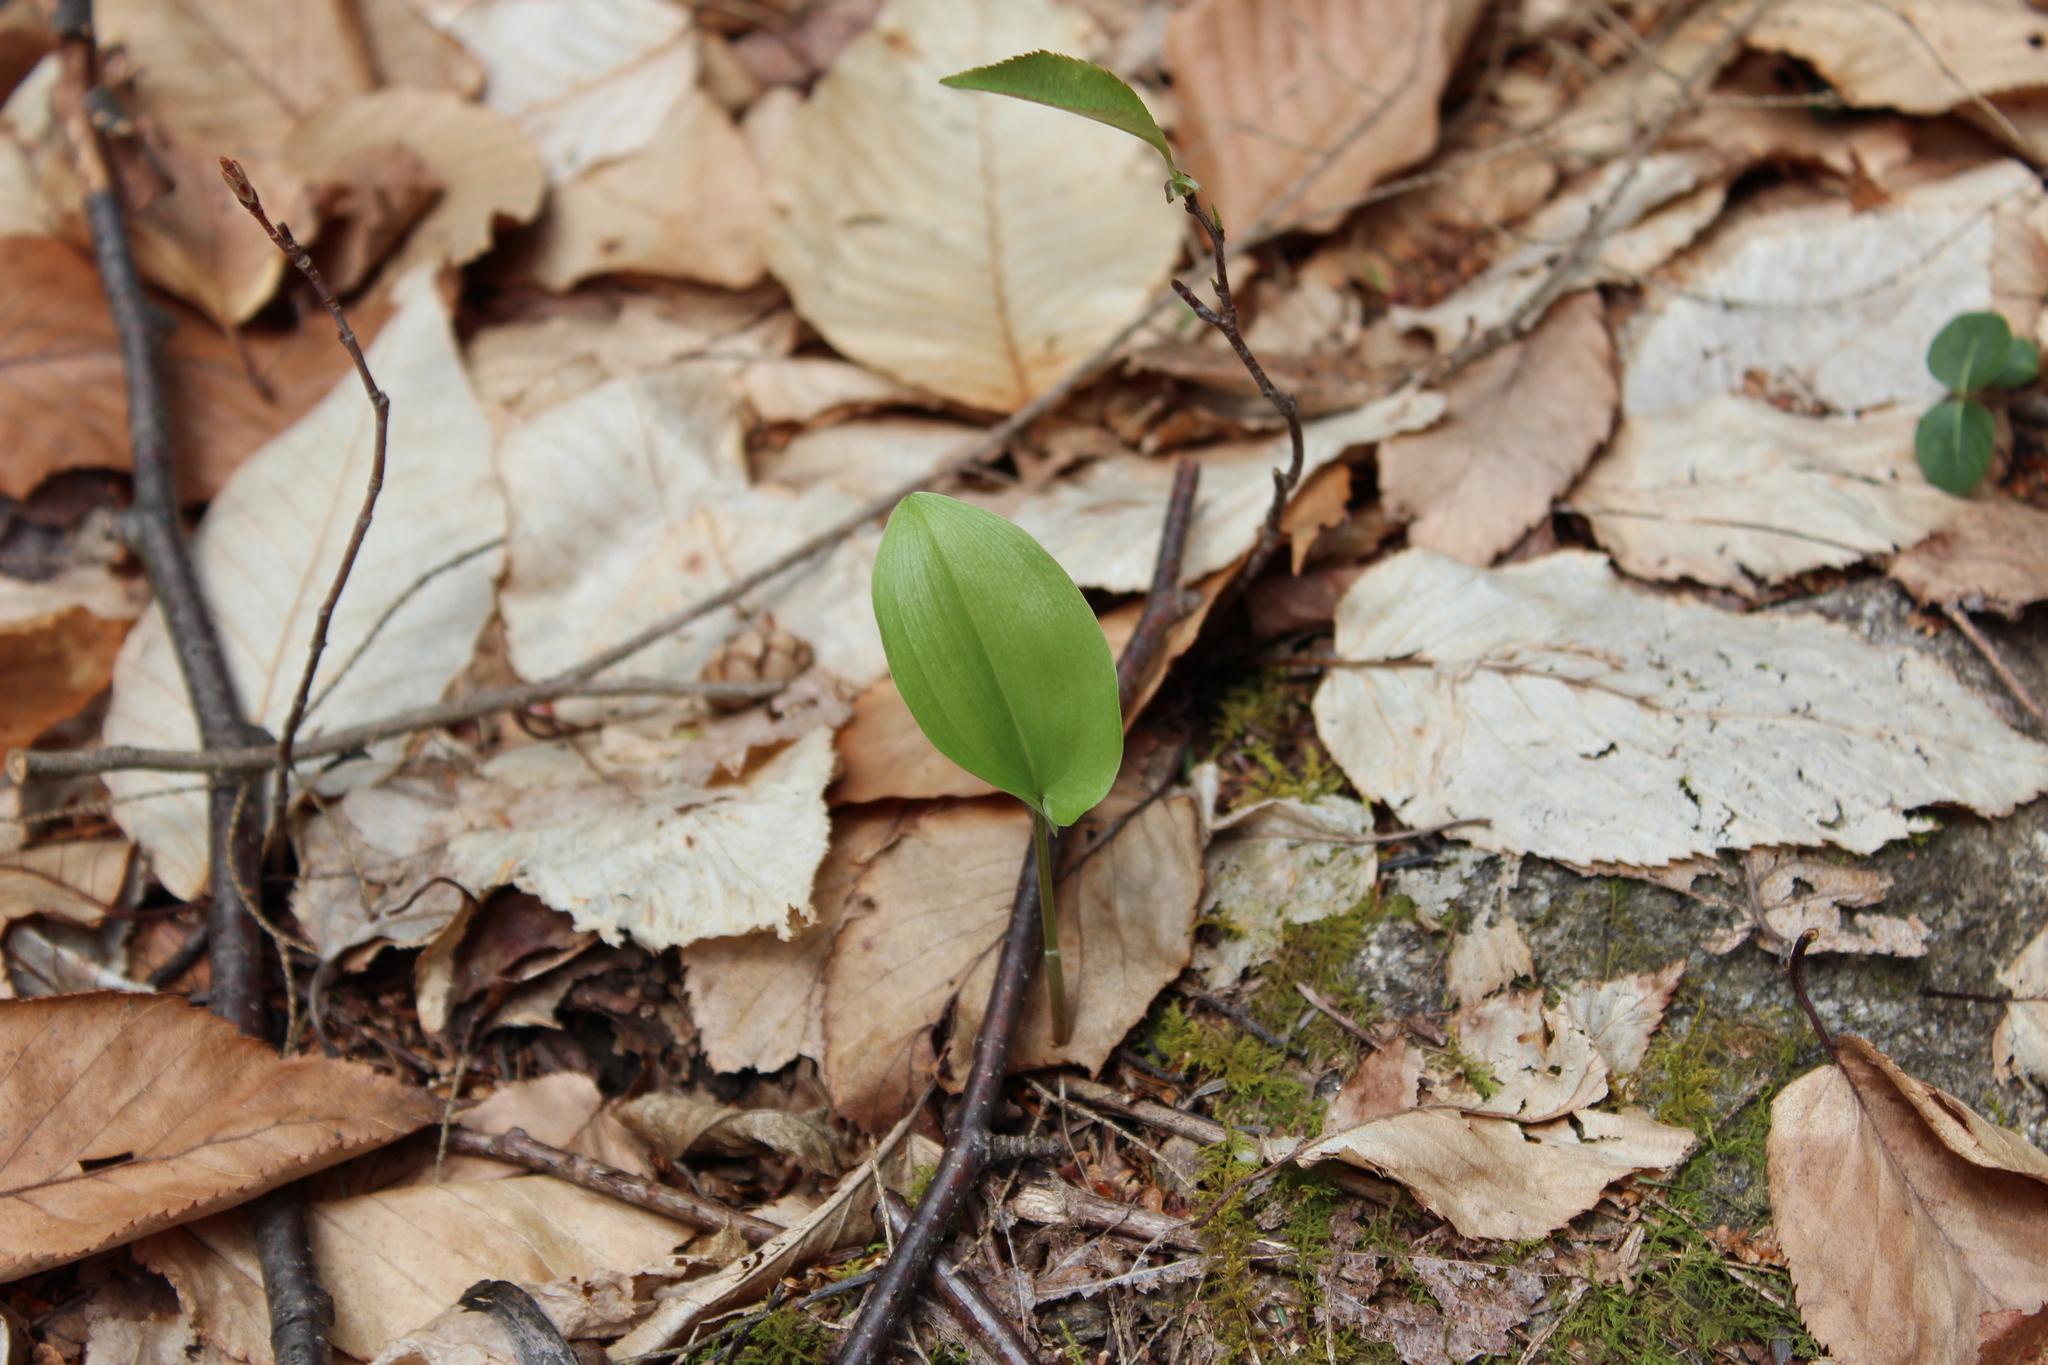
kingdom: Plantae
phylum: Tracheophyta
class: Liliopsida
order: Asparagales
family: Asparagaceae
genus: Maianthemum
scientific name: Maianthemum canadense
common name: False lily-of-the-valley
